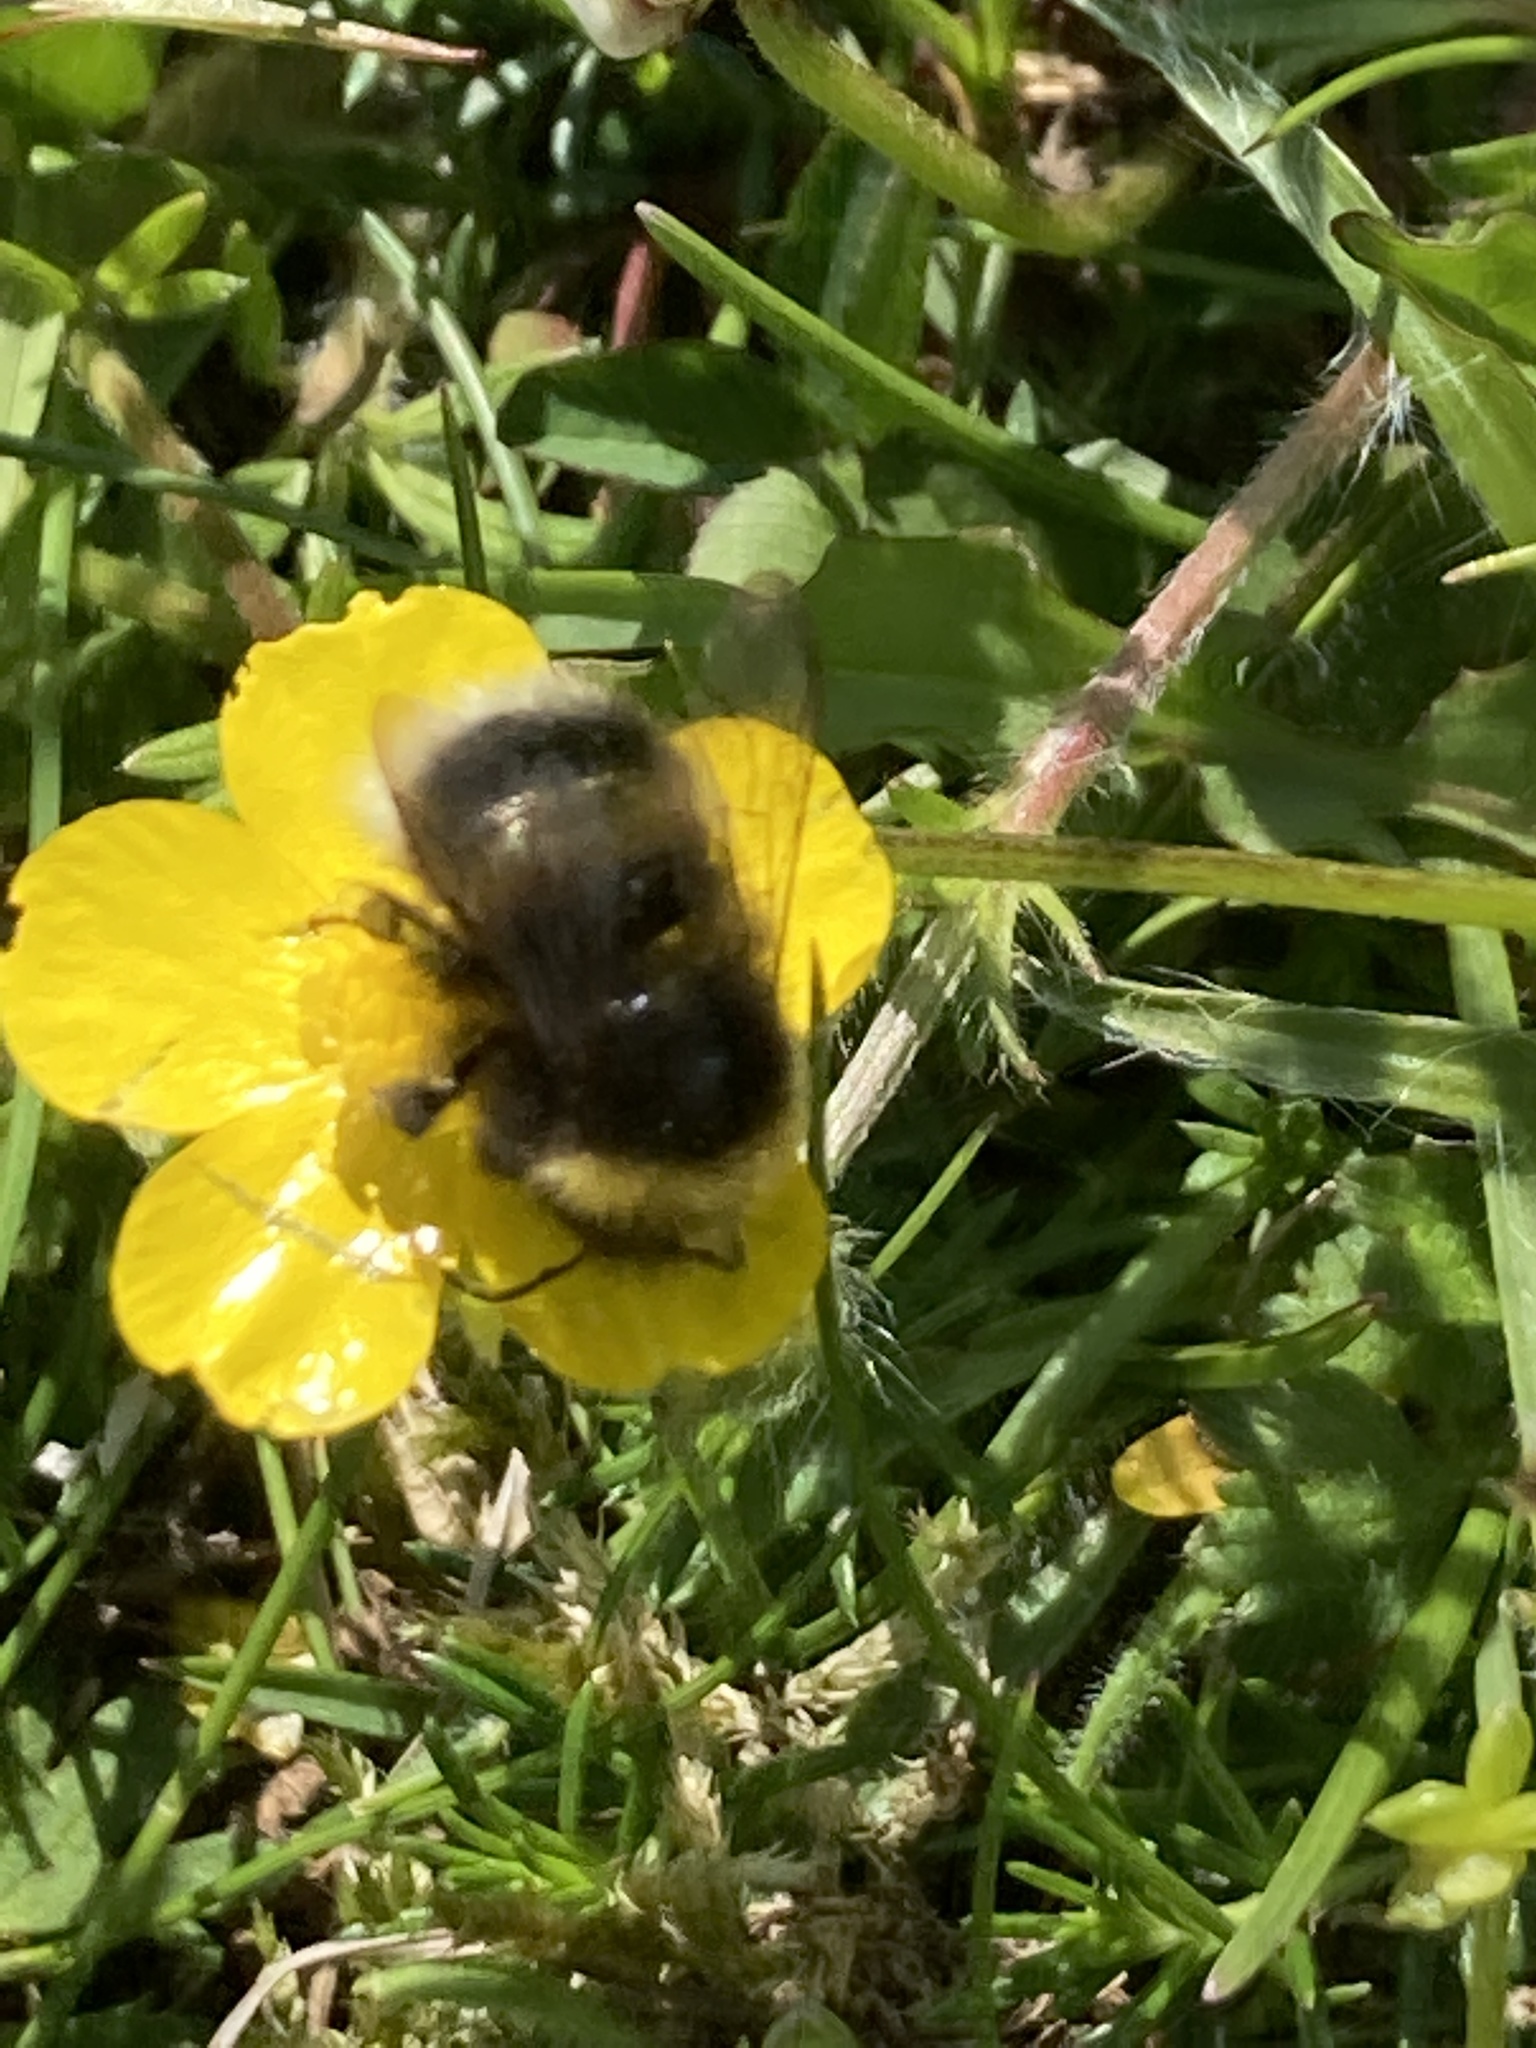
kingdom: Animalia
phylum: Arthropoda
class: Insecta
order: Hymenoptera
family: Apidae
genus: Bombus
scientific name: Bombus
